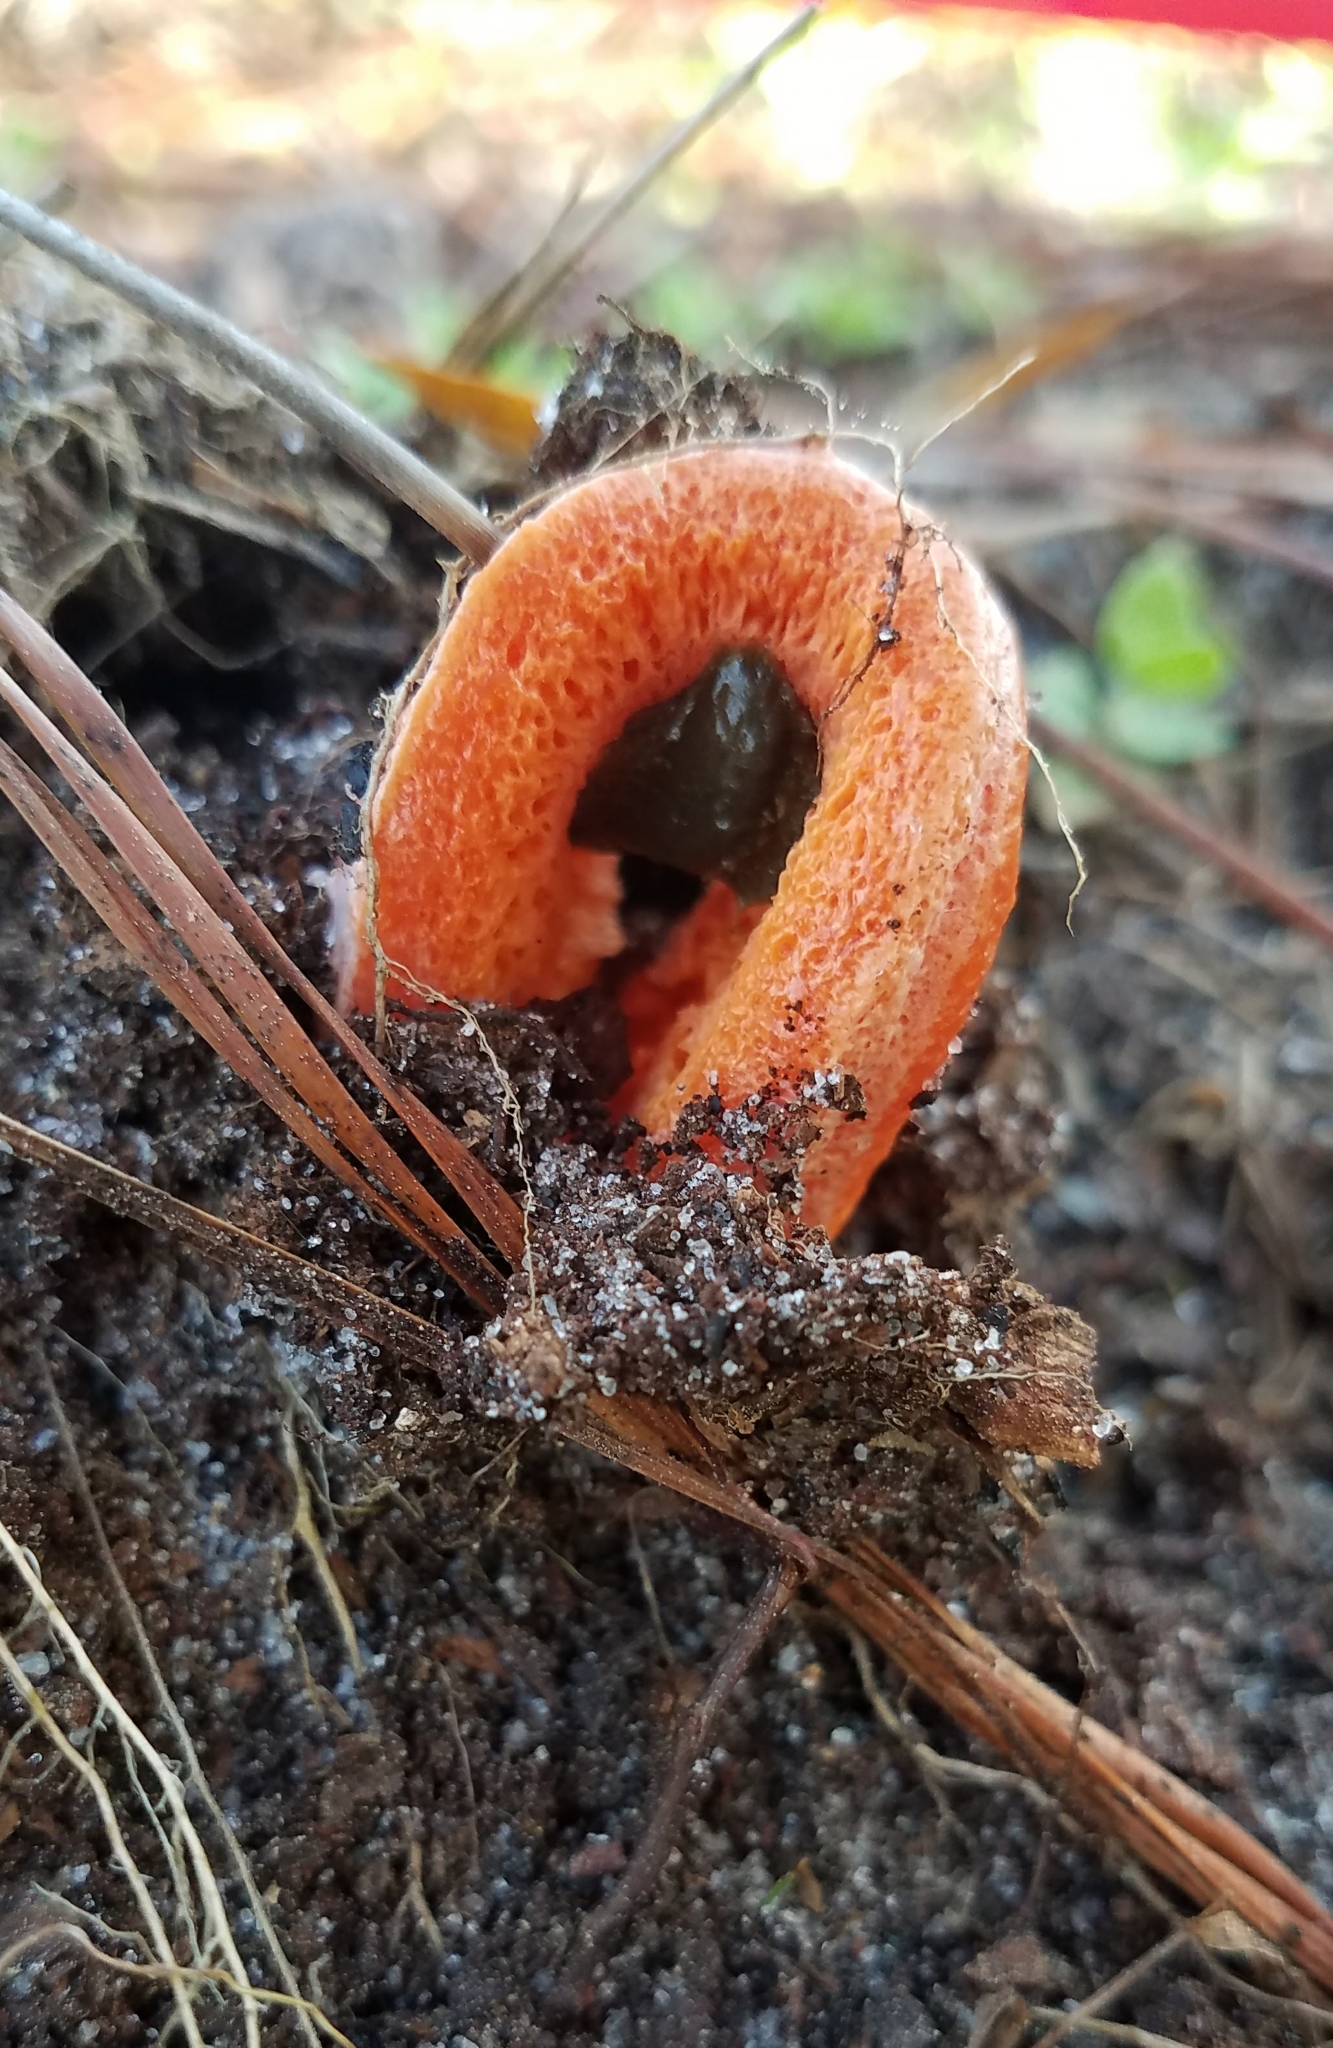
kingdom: Fungi
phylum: Basidiomycota
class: Agaricomycetes
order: Phallales
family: Phallaceae
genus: Clathrus
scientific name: Clathrus columnatus
